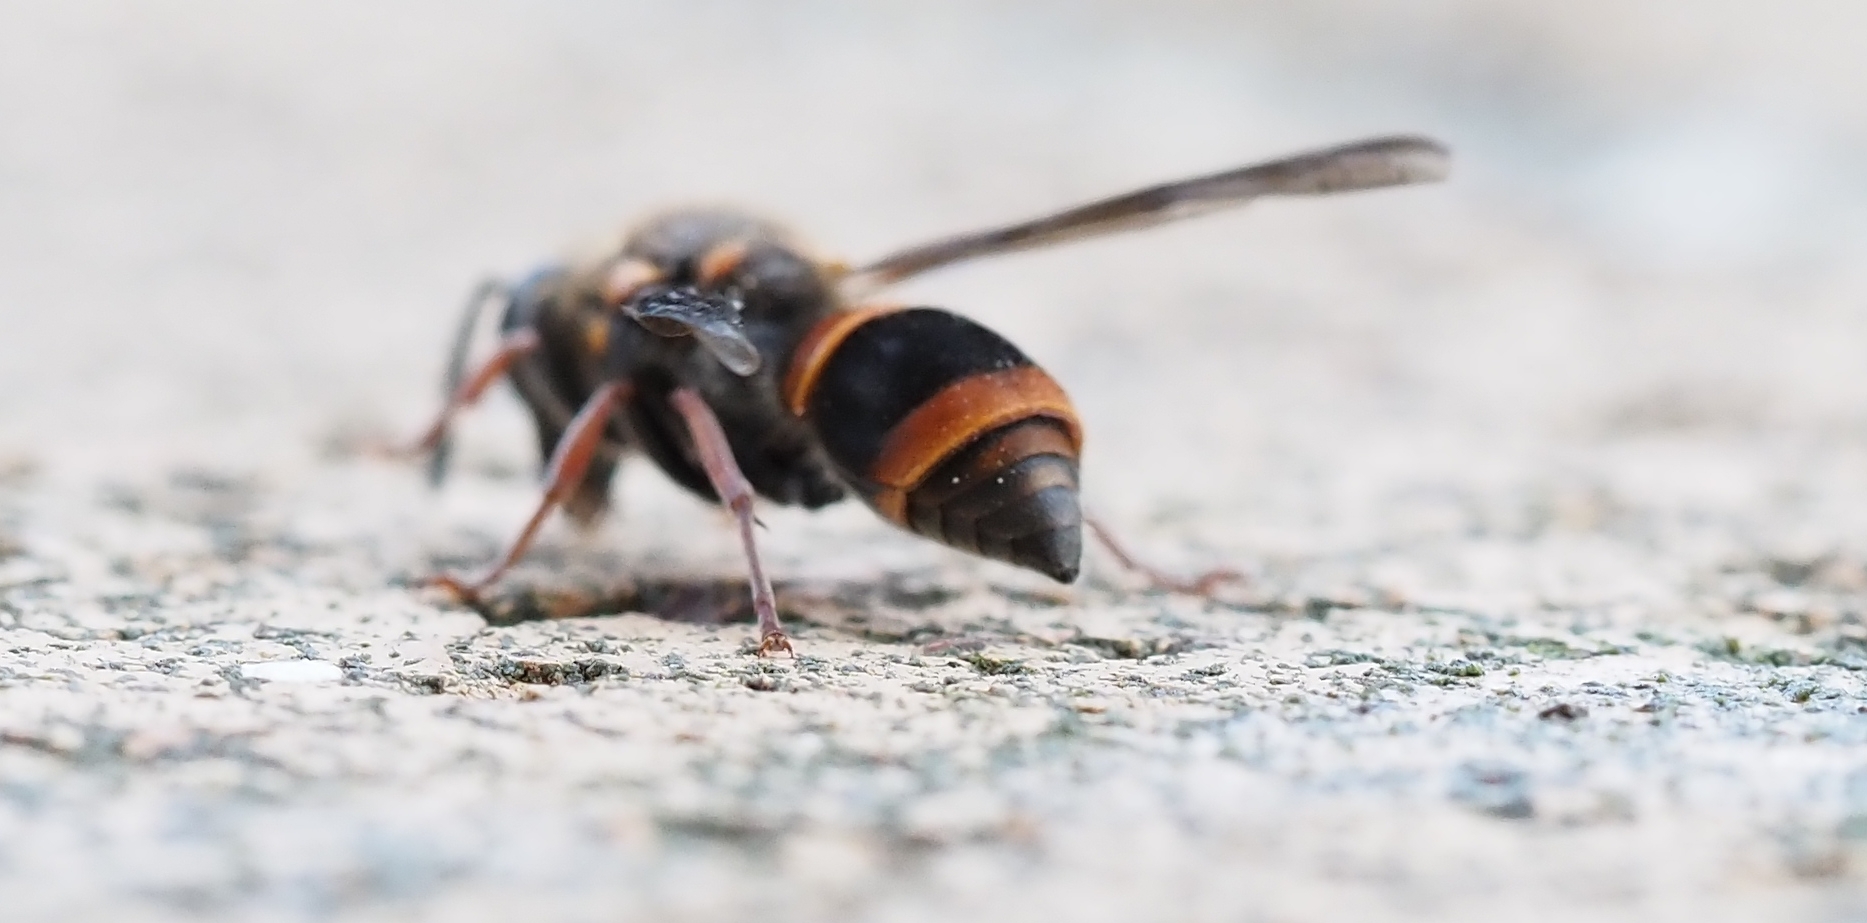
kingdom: Animalia
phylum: Arthropoda
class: Insecta
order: Hymenoptera
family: Eumenidae
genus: Paralastor
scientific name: Paralastor
